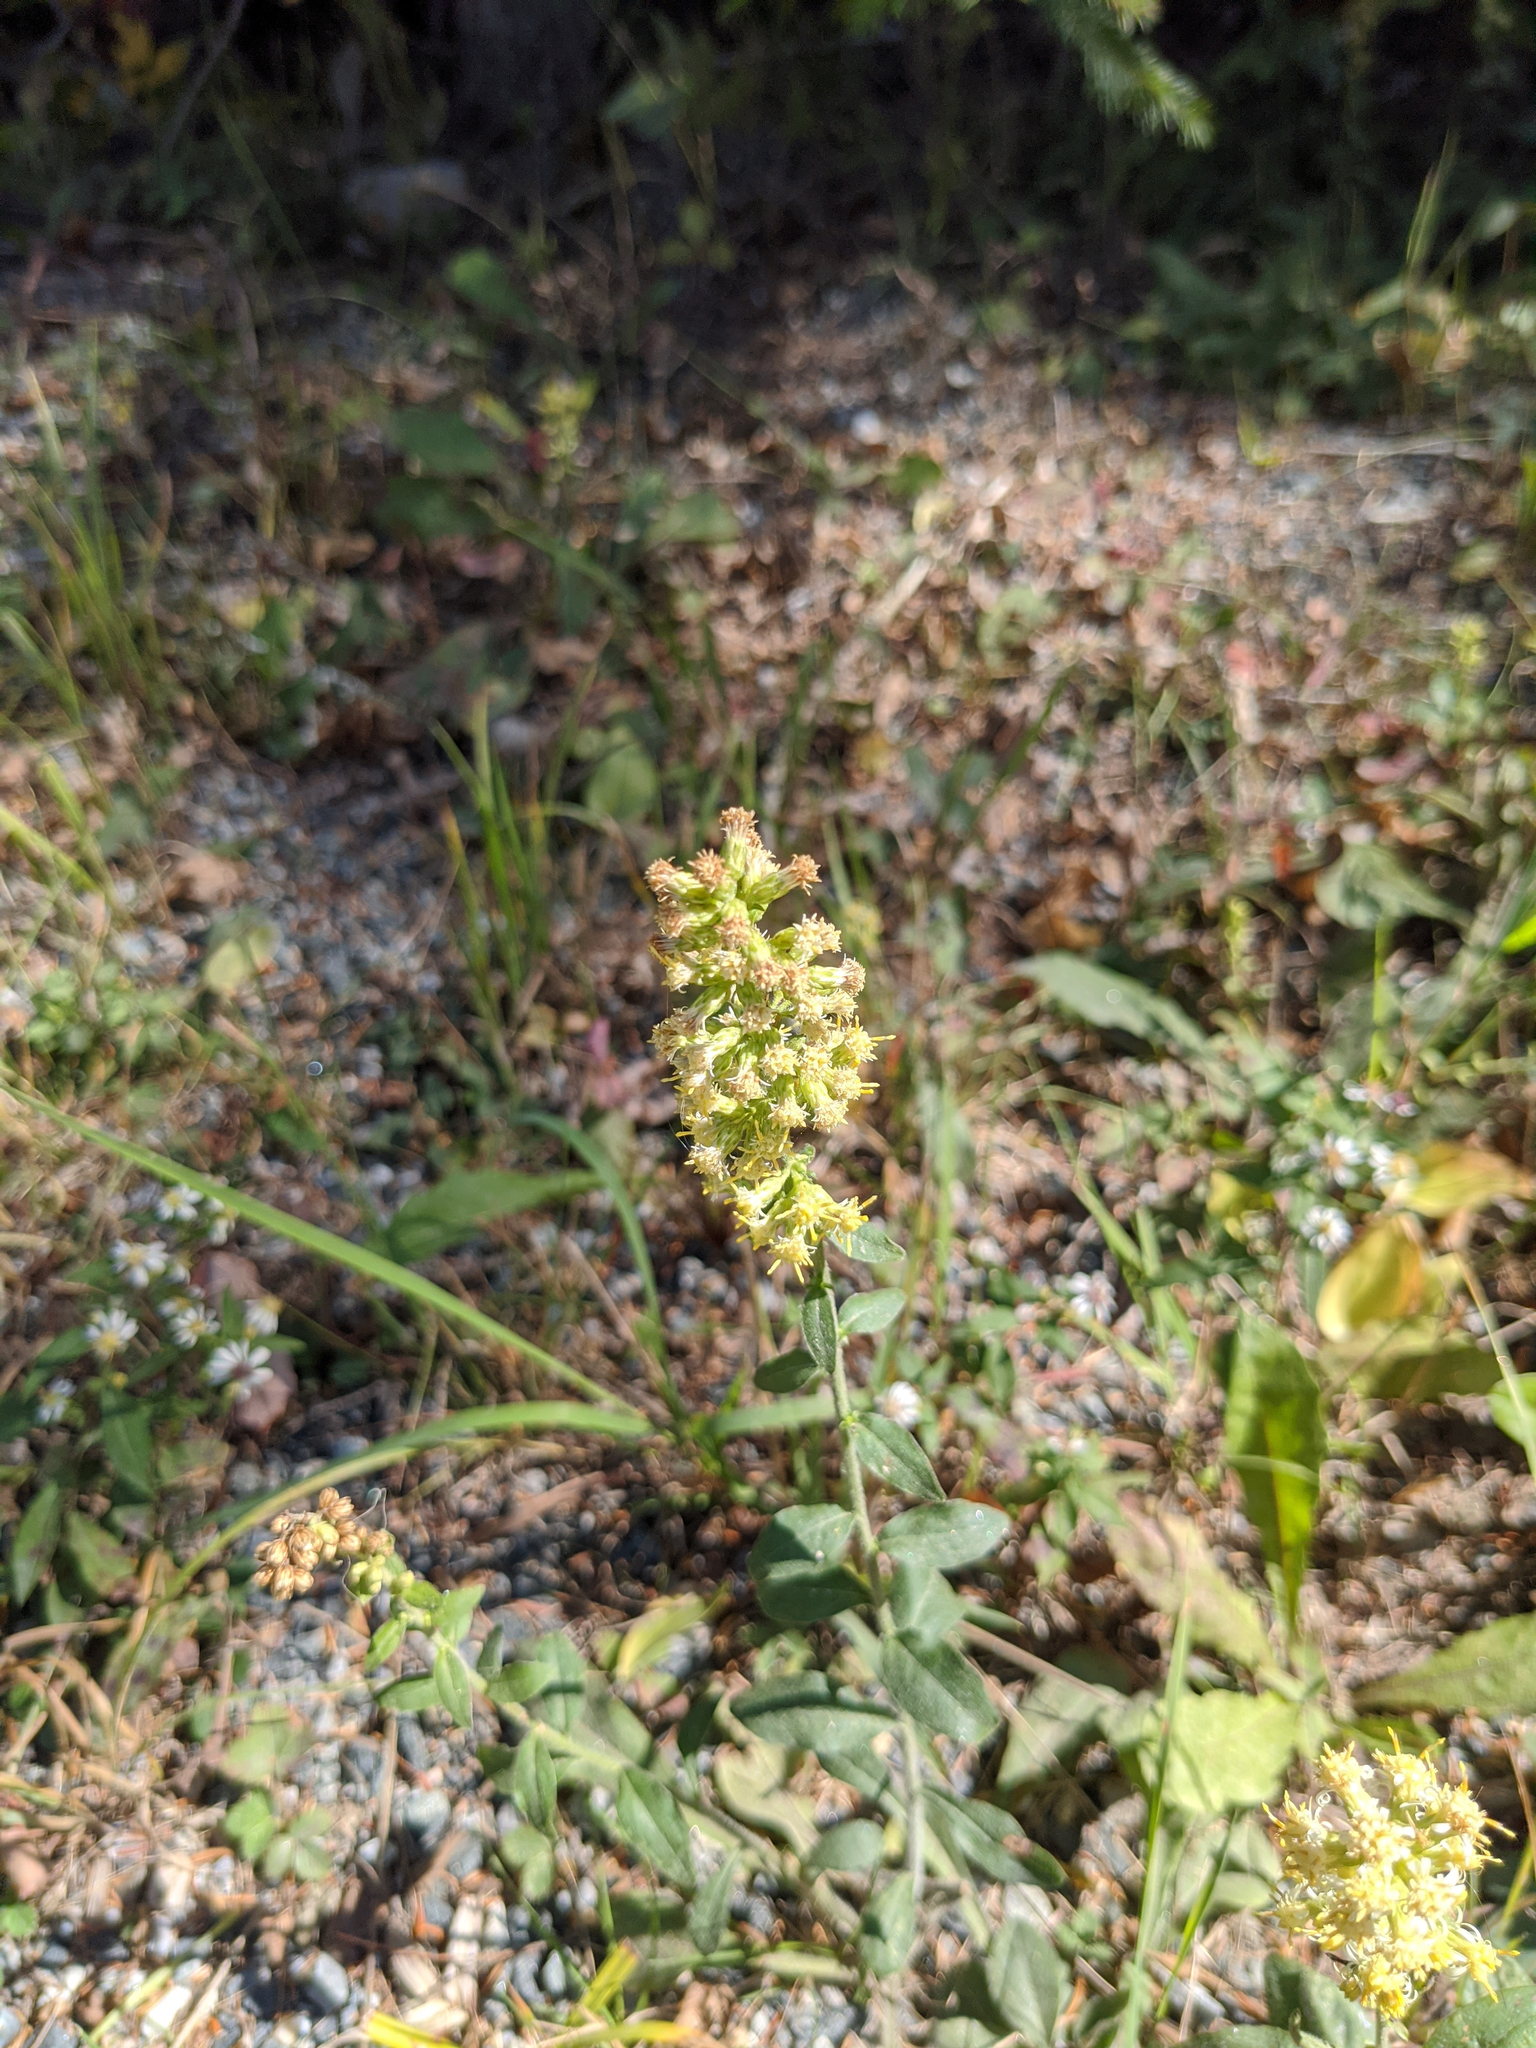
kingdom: Plantae
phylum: Tracheophyta
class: Magnoliopsida
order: Asterales
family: Asteraceae
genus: Solidago
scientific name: Solidago bicolor
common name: Silverrod
